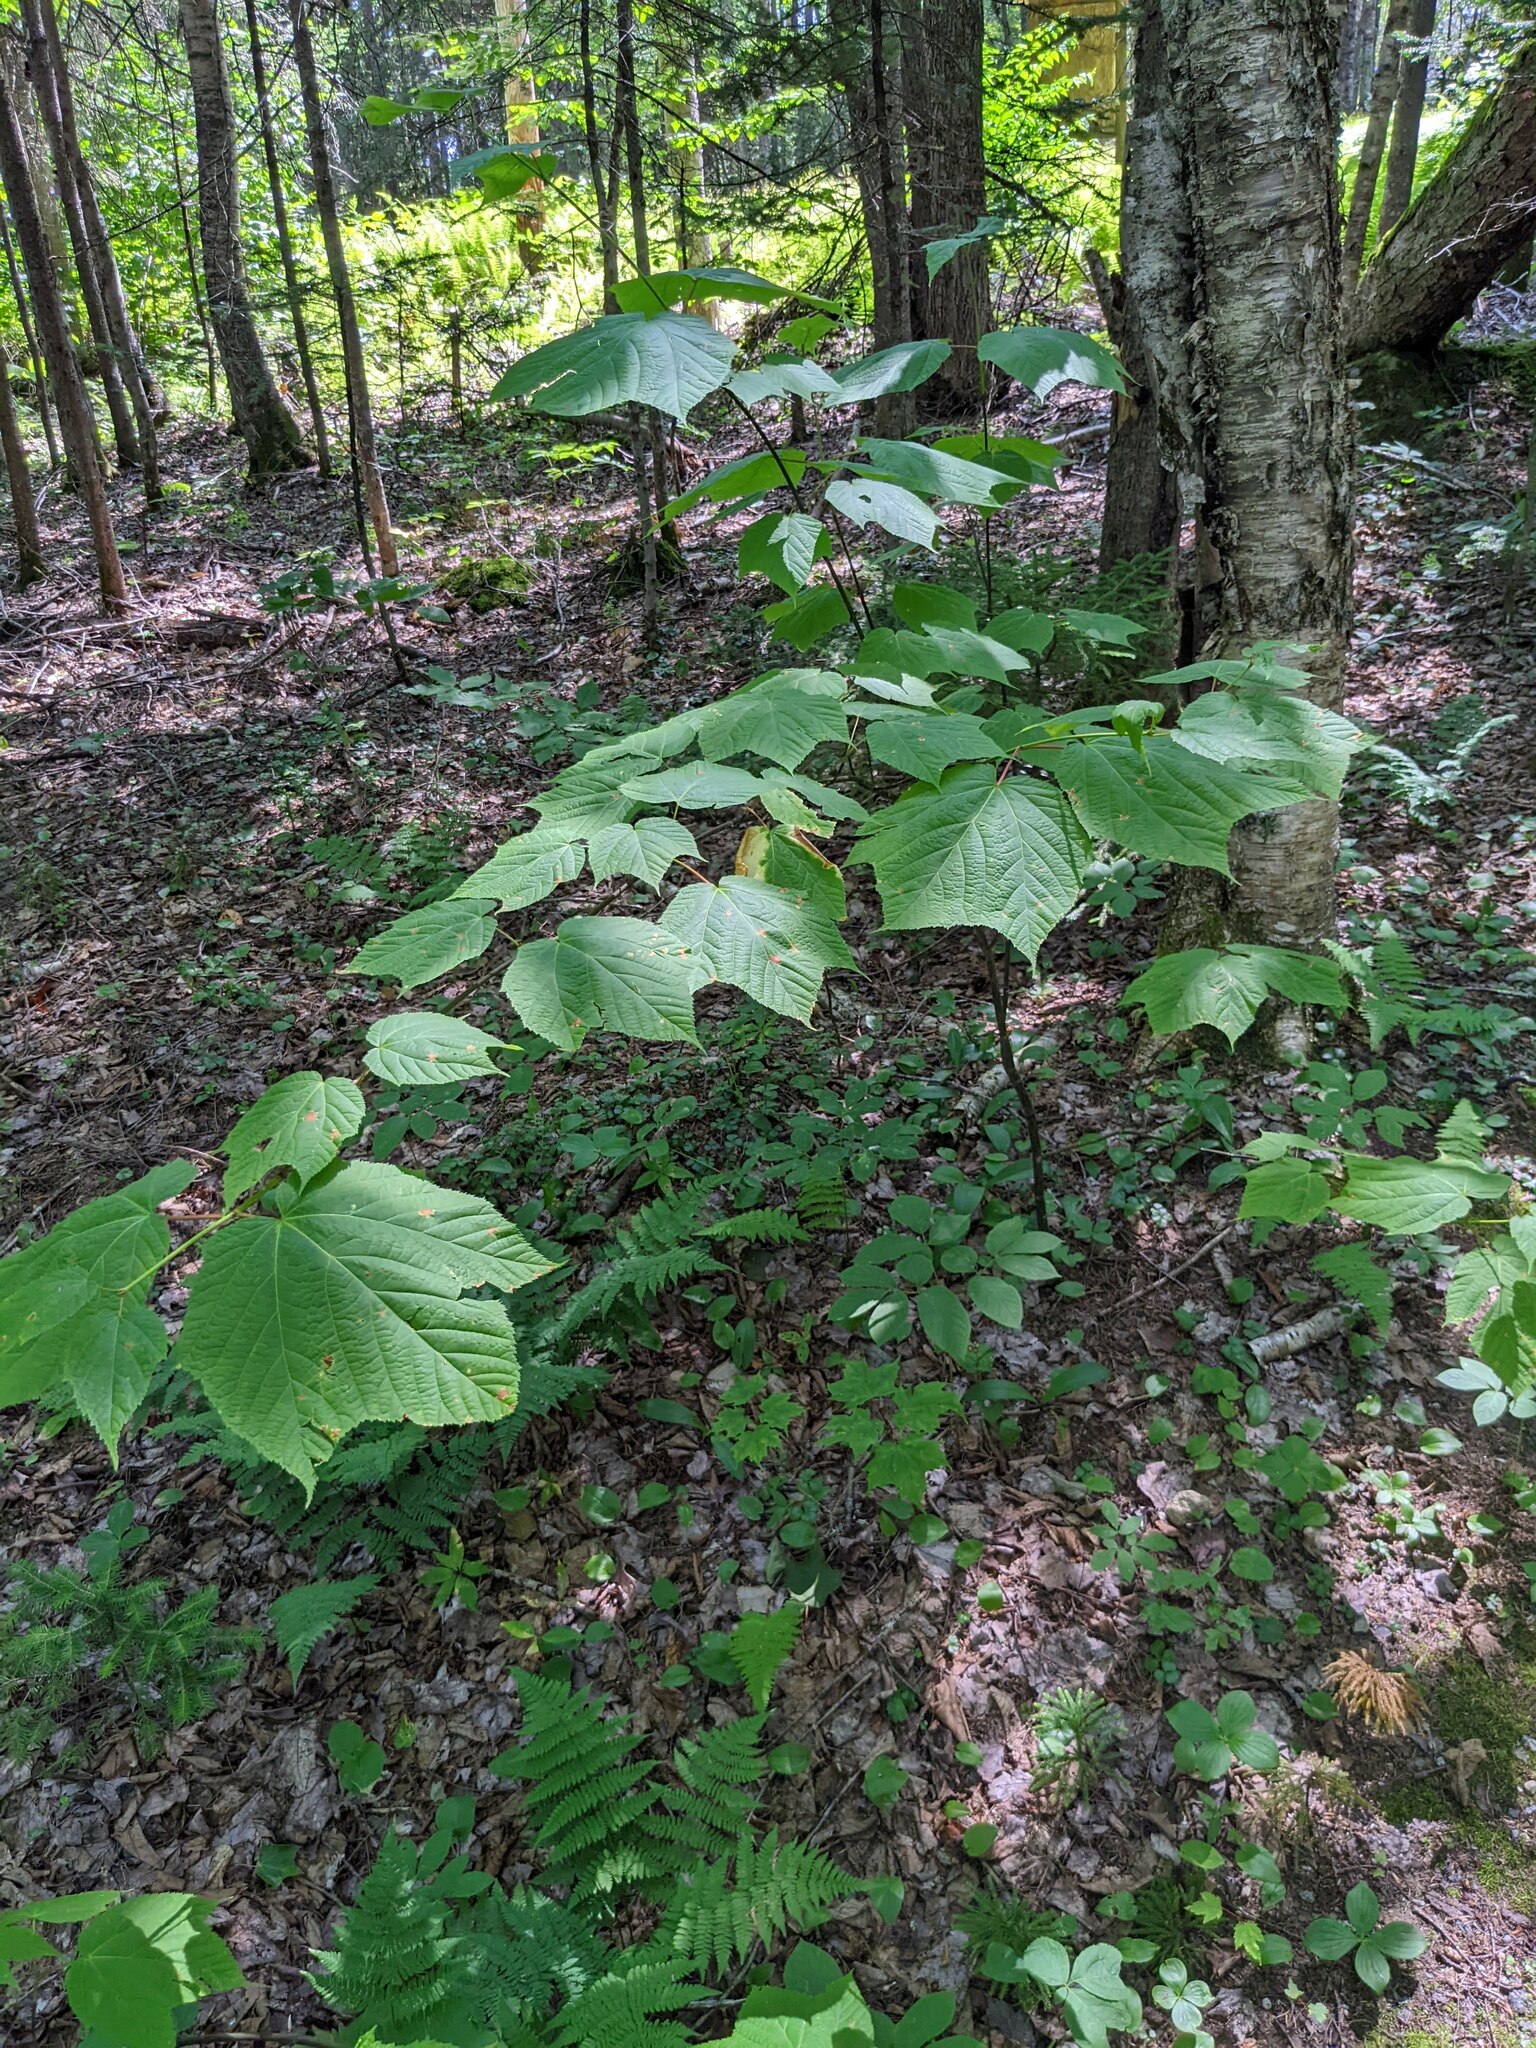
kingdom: Plantae
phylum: Tracheophyta
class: Magnoliopsida
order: Sapindales
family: Sapindaceae
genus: Acer
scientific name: Acer pensylvanicum
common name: Moosewood
